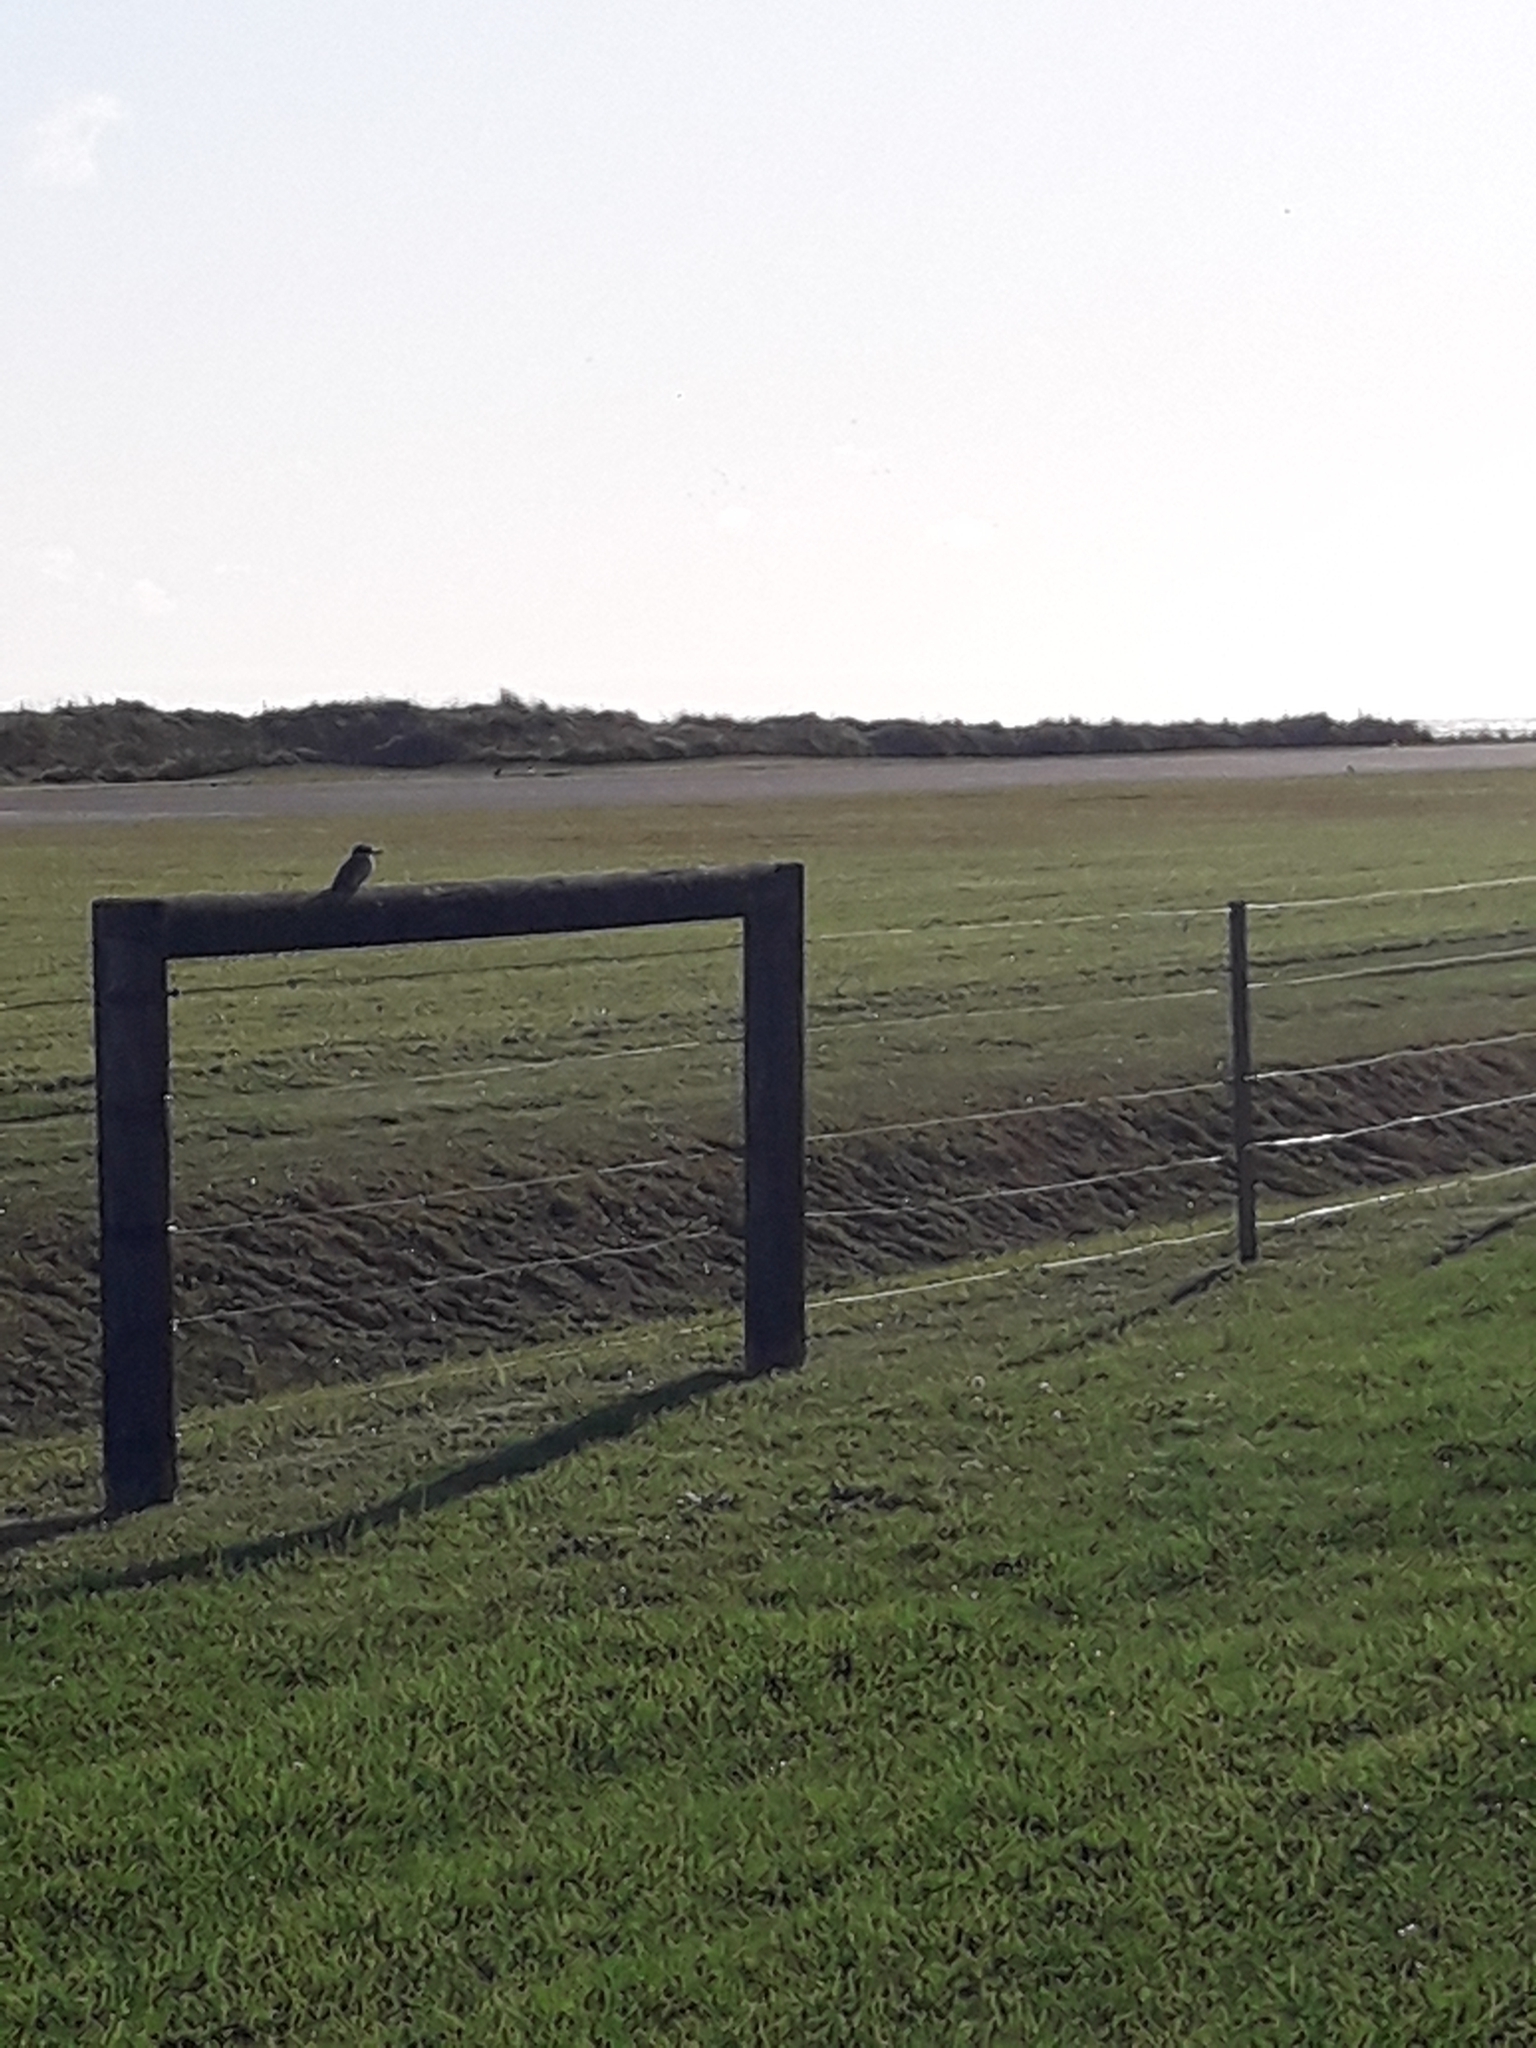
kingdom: Animalia
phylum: Chordata
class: Aves
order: Coraciiformes
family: Alcedinidae
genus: Todiramphus
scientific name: Todiramphus sanctus
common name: Sacred kingfisher
